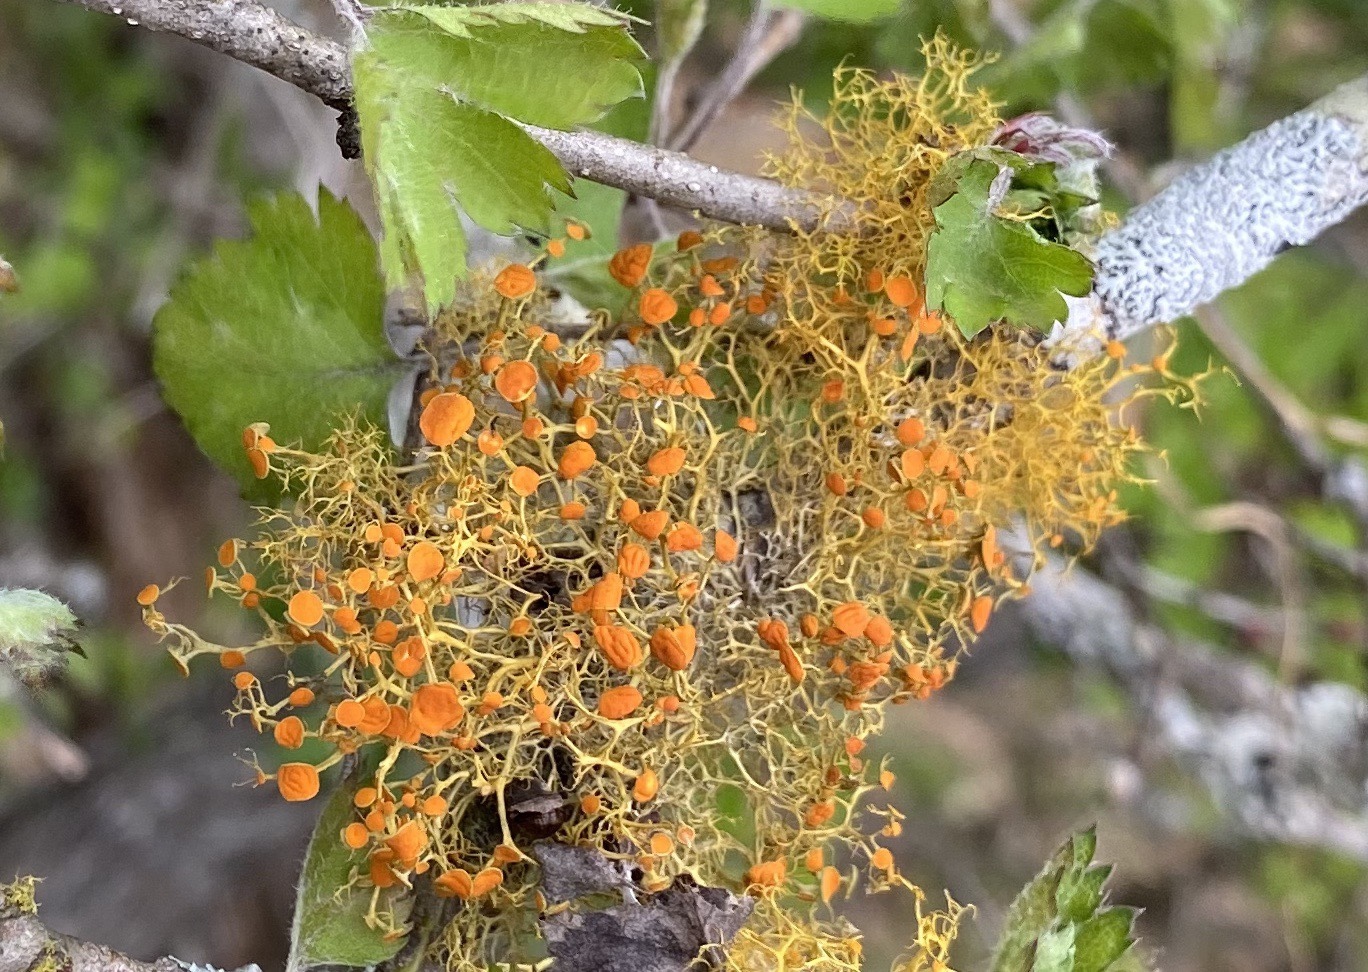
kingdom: Fungi
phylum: Ascomycota
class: Lecanoromycetes
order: Teloschistales
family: Teloschistaceae
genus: Teloschistes
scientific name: Teloschistes exilis
